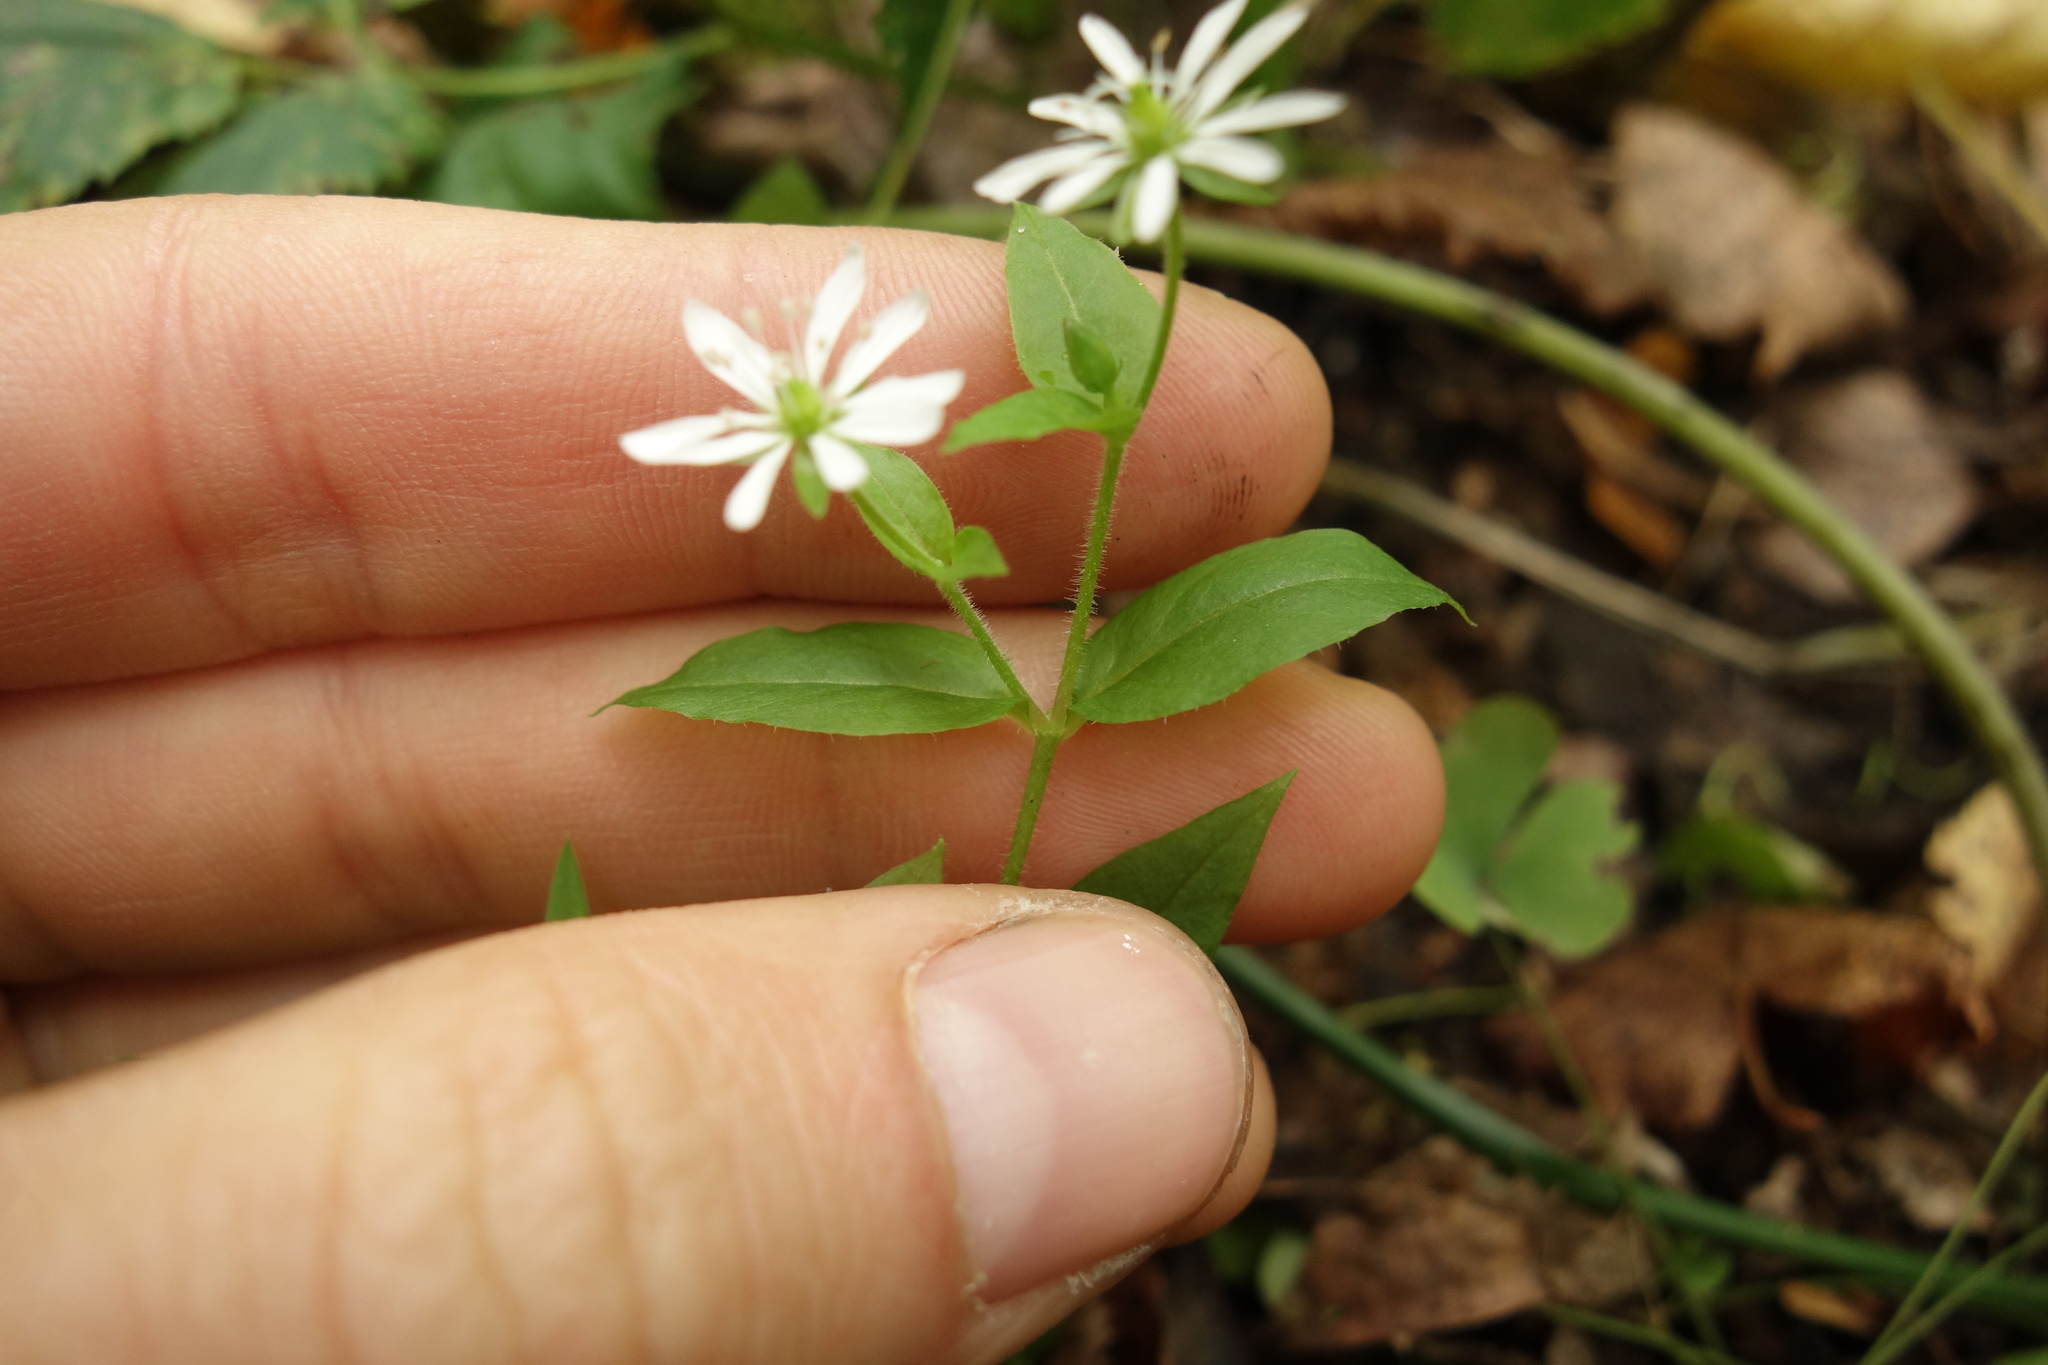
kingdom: Plantae
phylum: Tracheophyta
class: Magnoliopsida
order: Caryophyllales
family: Caryophyllaceae
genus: Stellaria
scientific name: Stellaria aquatica
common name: Water chickweed
